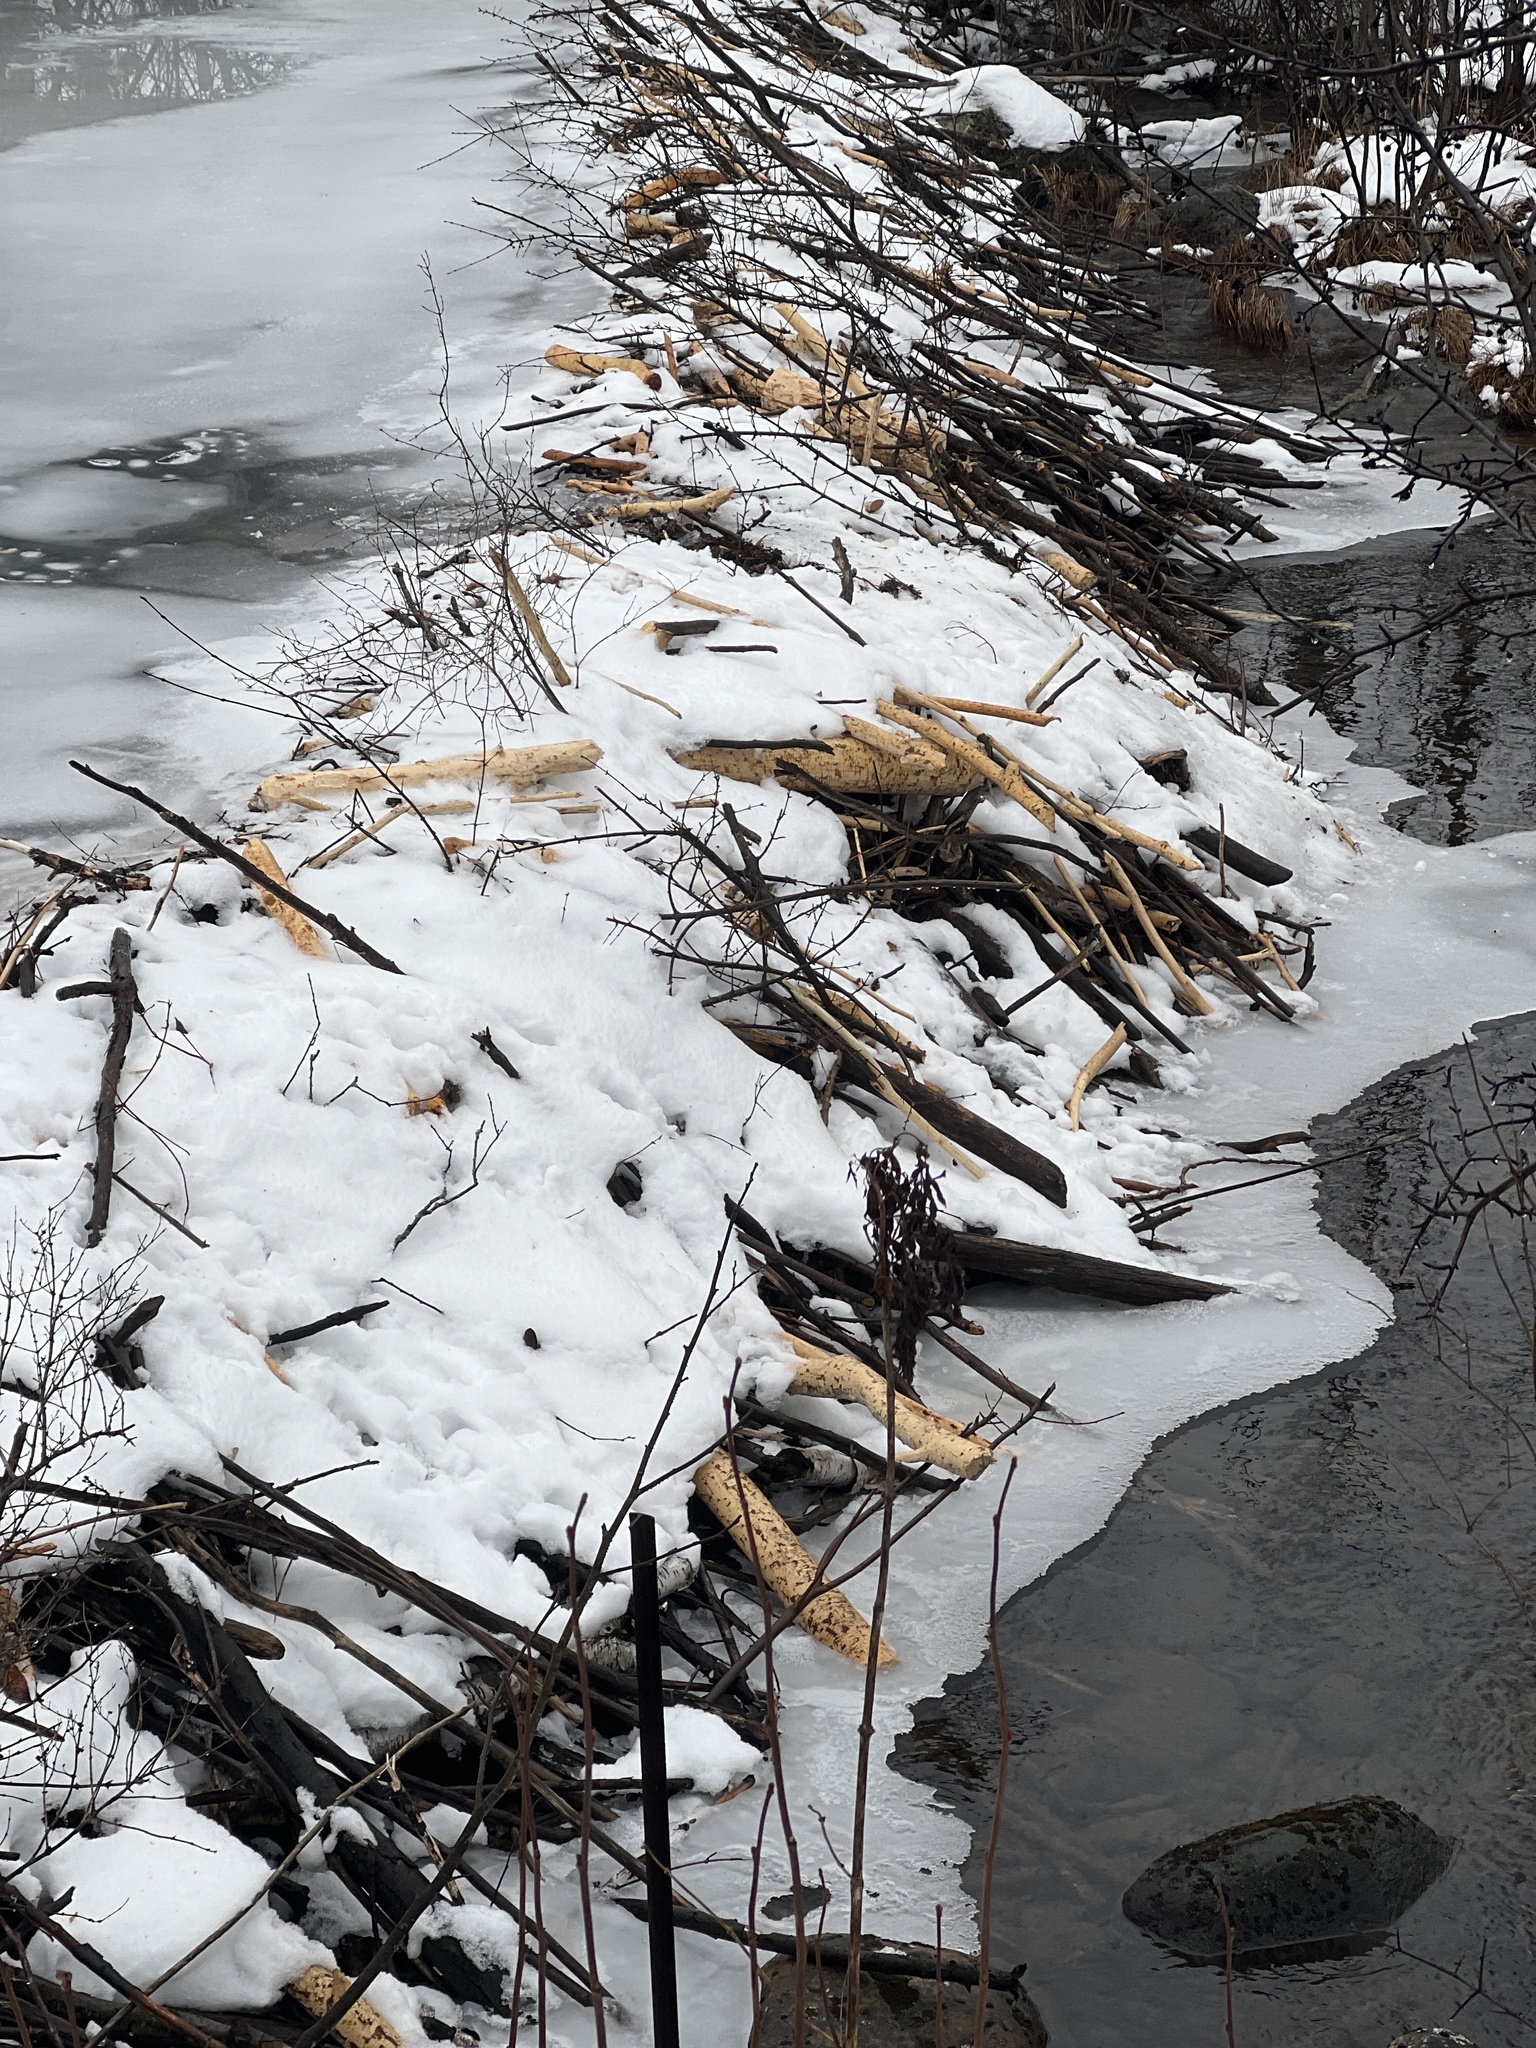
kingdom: Animalia
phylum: Chordata
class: Mammalia
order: Rodentia
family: Castoridae
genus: Castor
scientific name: Castor canadensis
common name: American beaver
